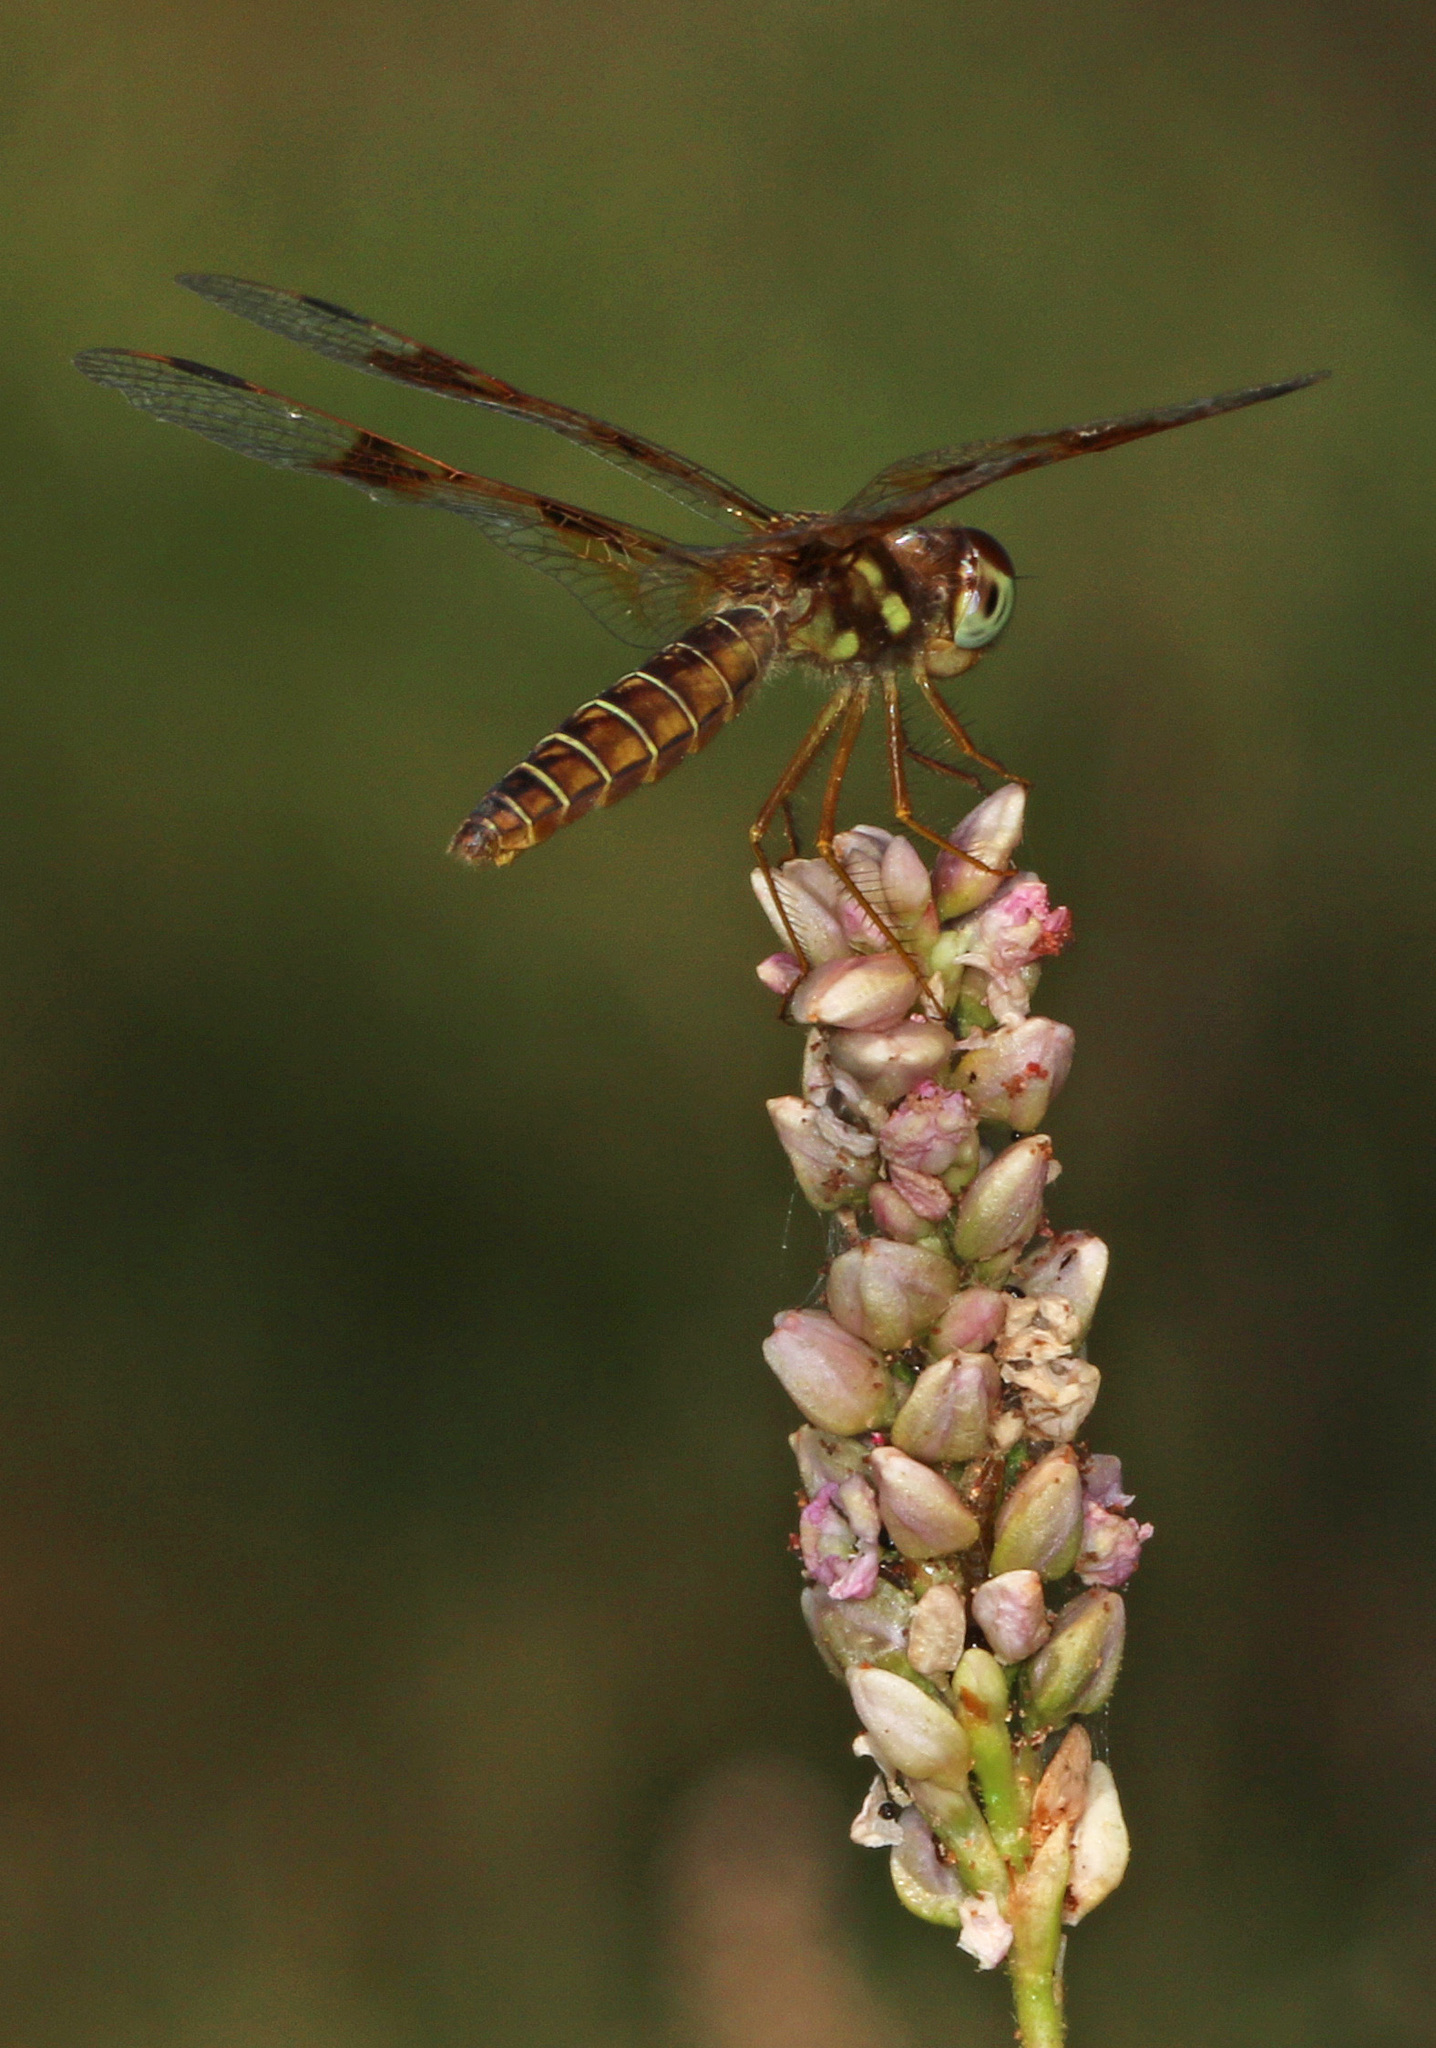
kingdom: Animalia
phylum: Arthropoda
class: Insecta
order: Odonata
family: Libellulidae
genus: Perithemis
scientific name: Perithemis tenera
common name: Eastern amberwing
